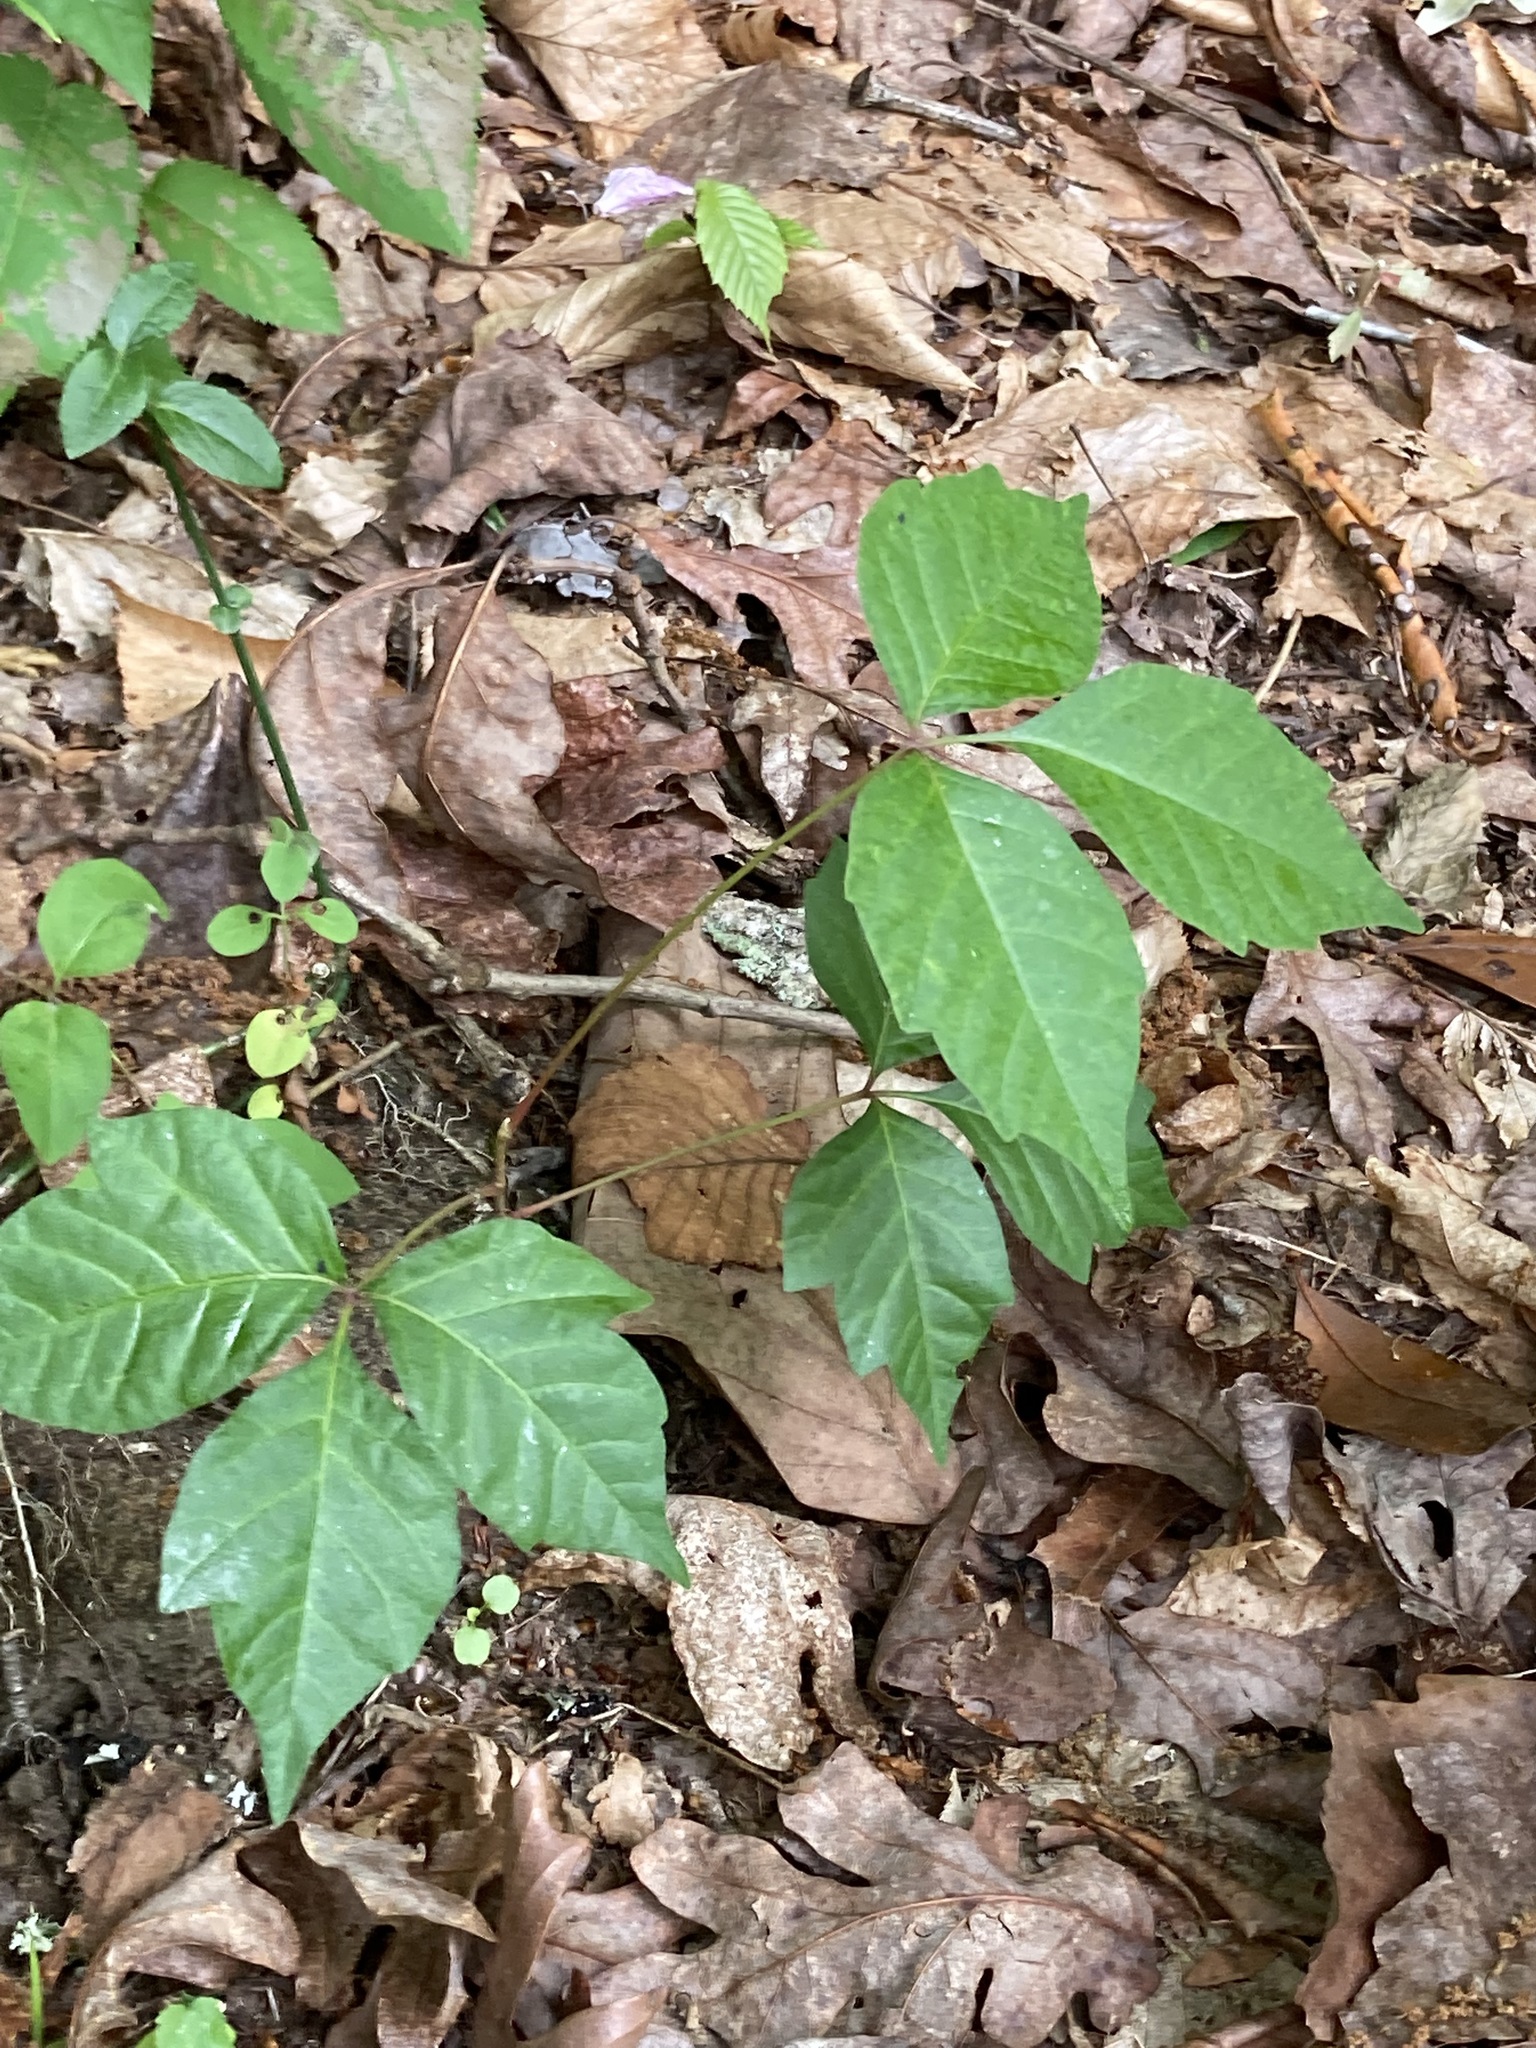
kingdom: Plantae
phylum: Tracheophyta
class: Magnoliopsida
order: Sapindales
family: Anacardiaceae
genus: Toxicodendron
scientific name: Toxicodendron radicans
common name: Poison ivy
